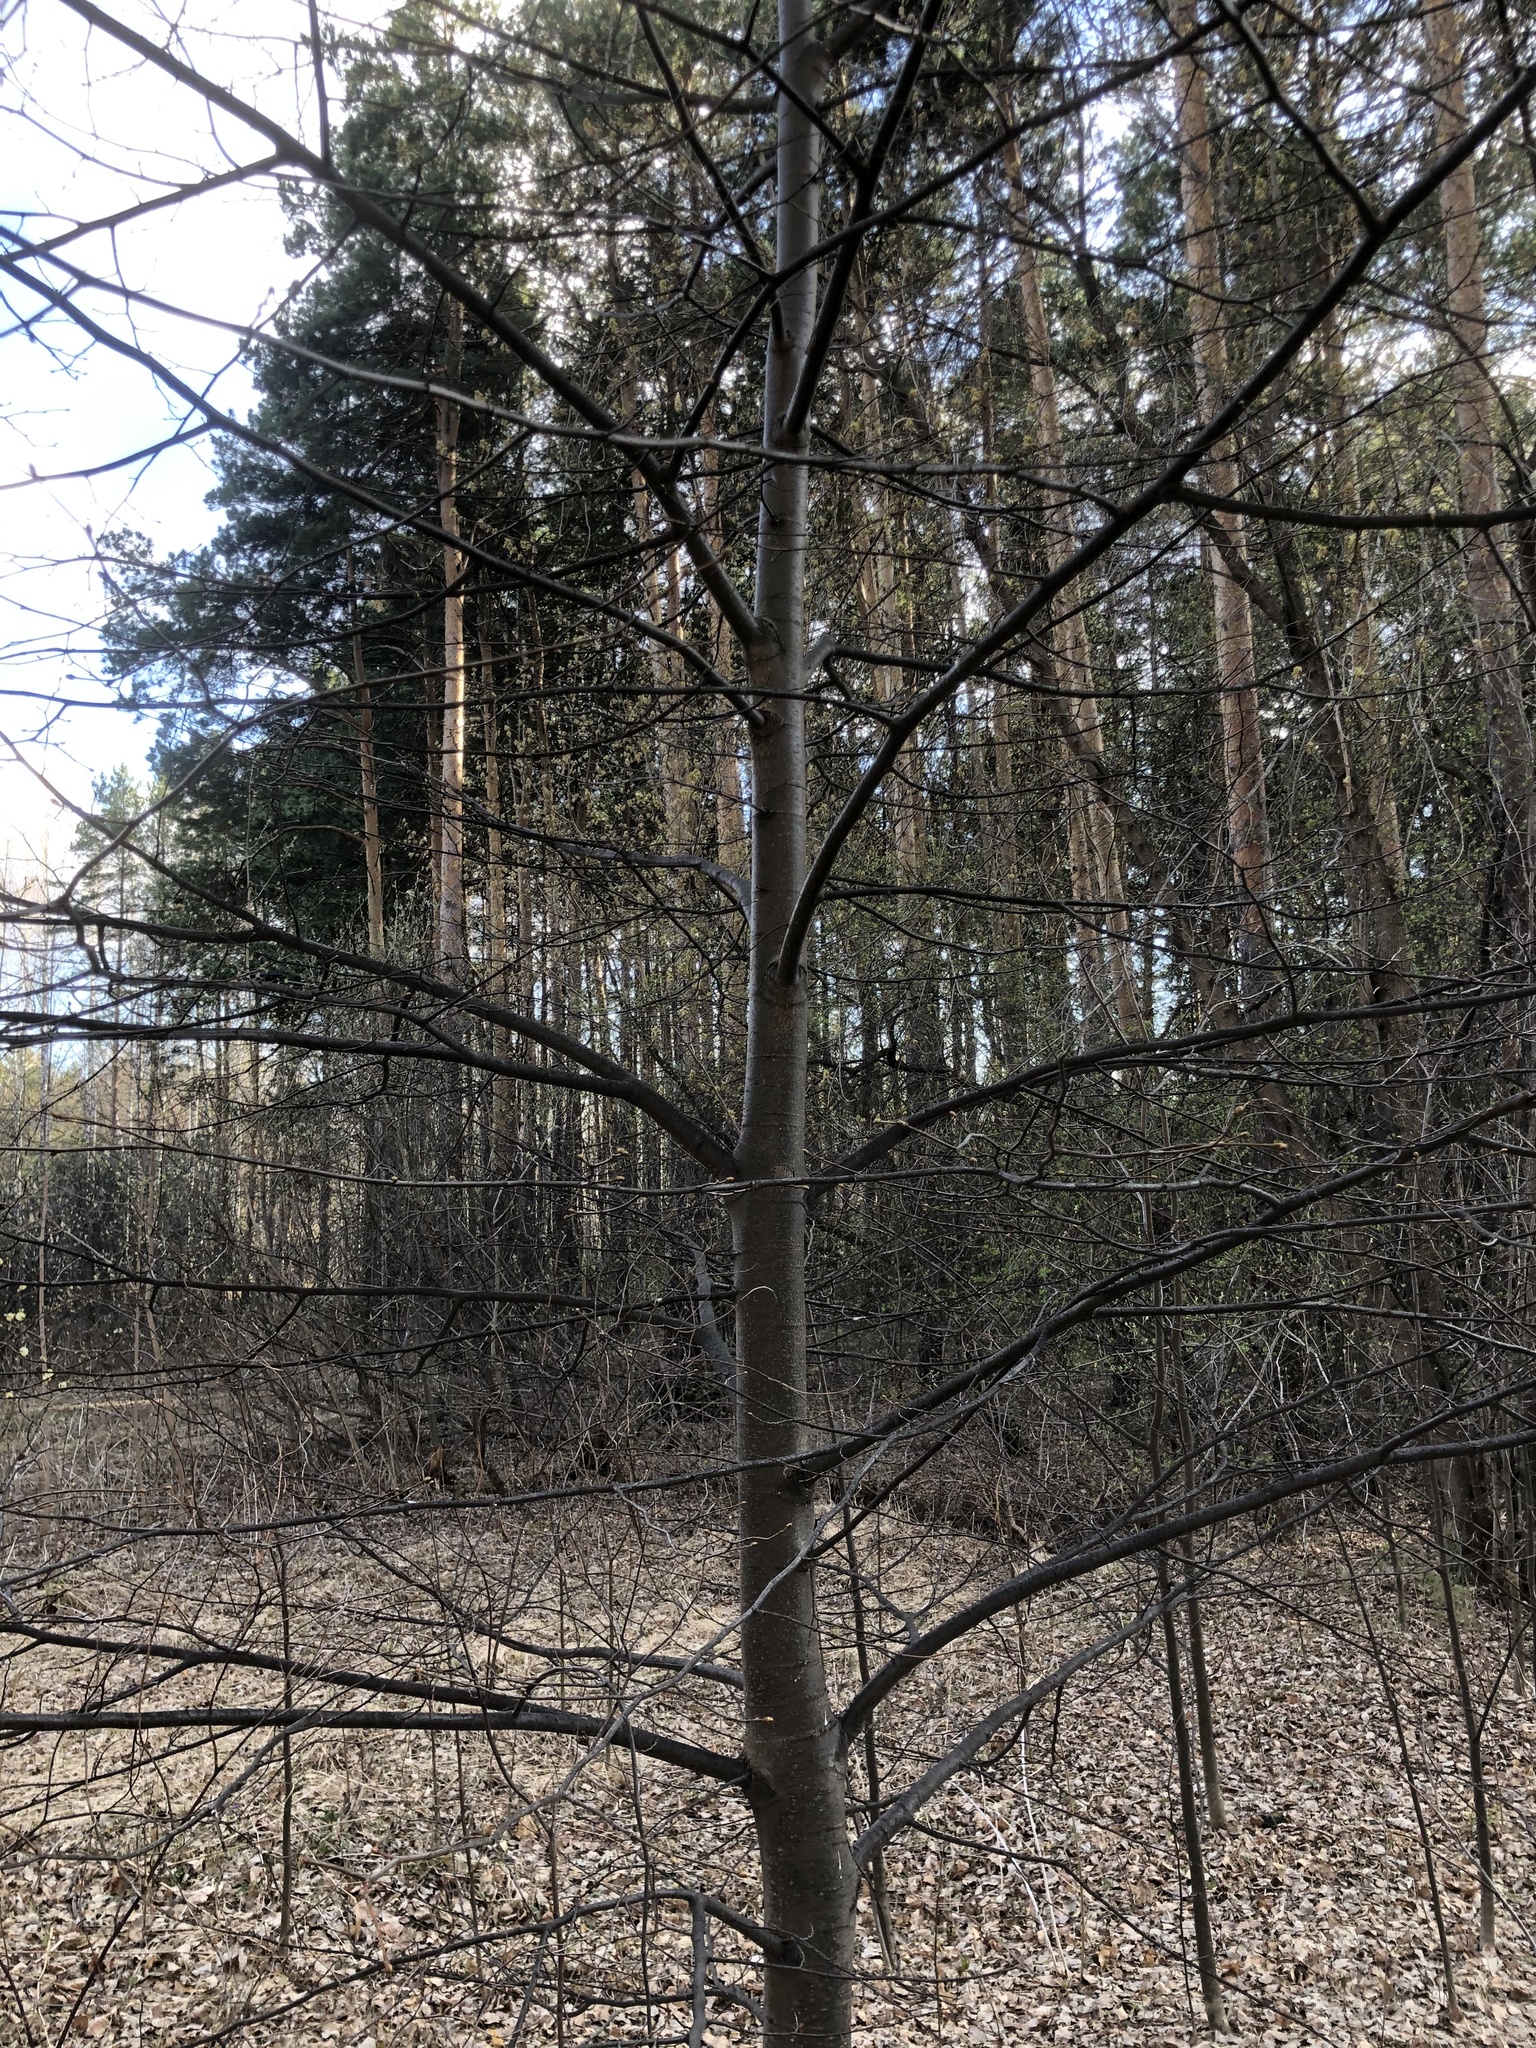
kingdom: Plantae
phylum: Tracheophyta
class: Magnoliopsida
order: Malvales
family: Malvaceae
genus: Tilia
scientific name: Tilia cordata
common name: Small-leaved lime
